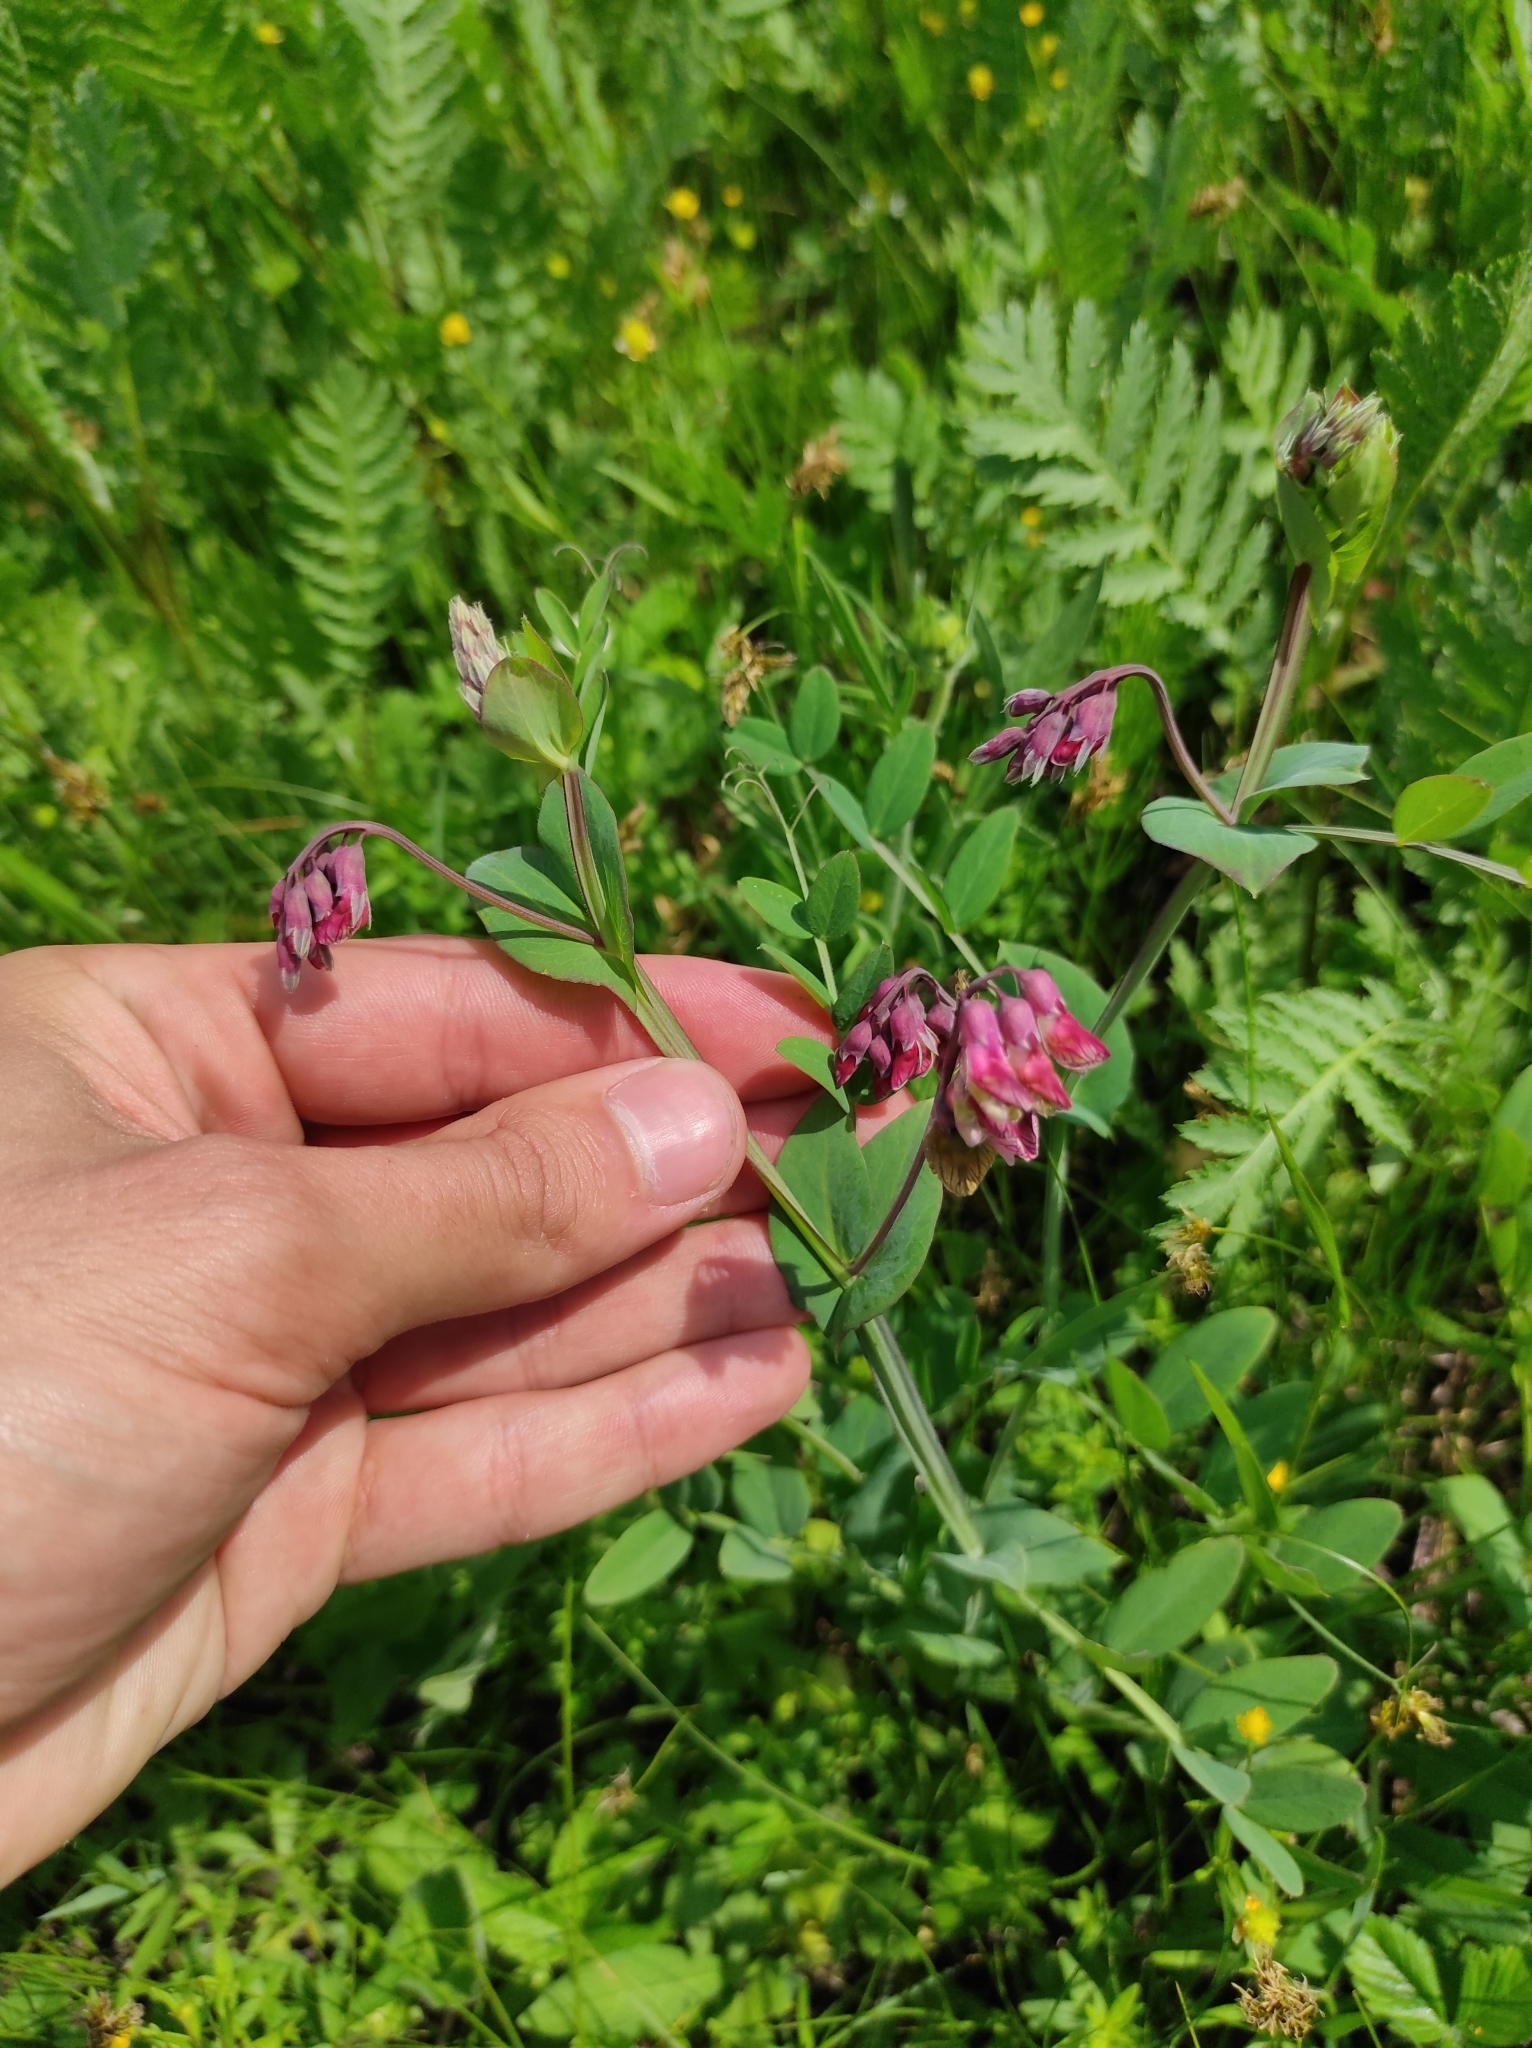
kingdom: Plantae
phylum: Tracheophyta
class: Magnoliopsida
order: Fabales
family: Fabaceae
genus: Lathyrus
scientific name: Lathyrus pisiformis
